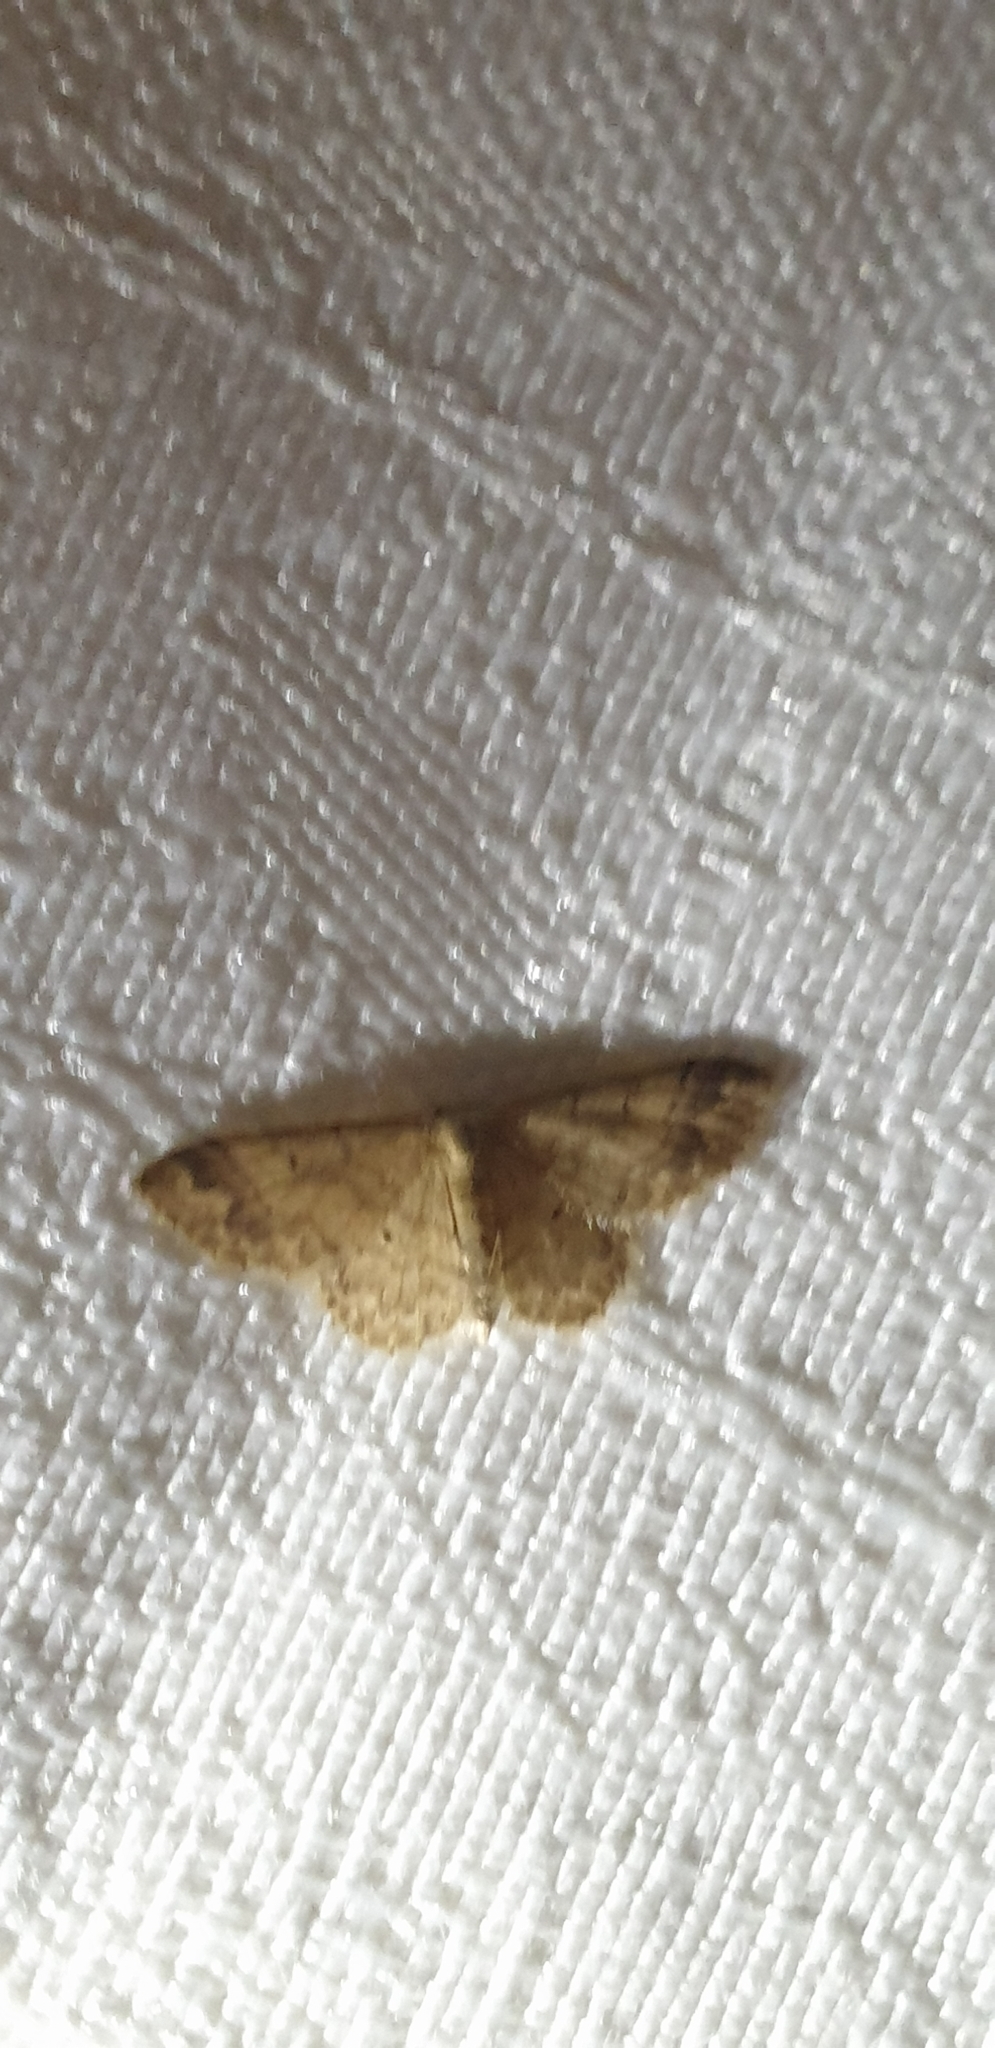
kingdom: Animalia
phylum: Arthropoda
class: Insecta
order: Lepidoptera
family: Geometridae
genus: Idaea
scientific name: Idaea pilosata
